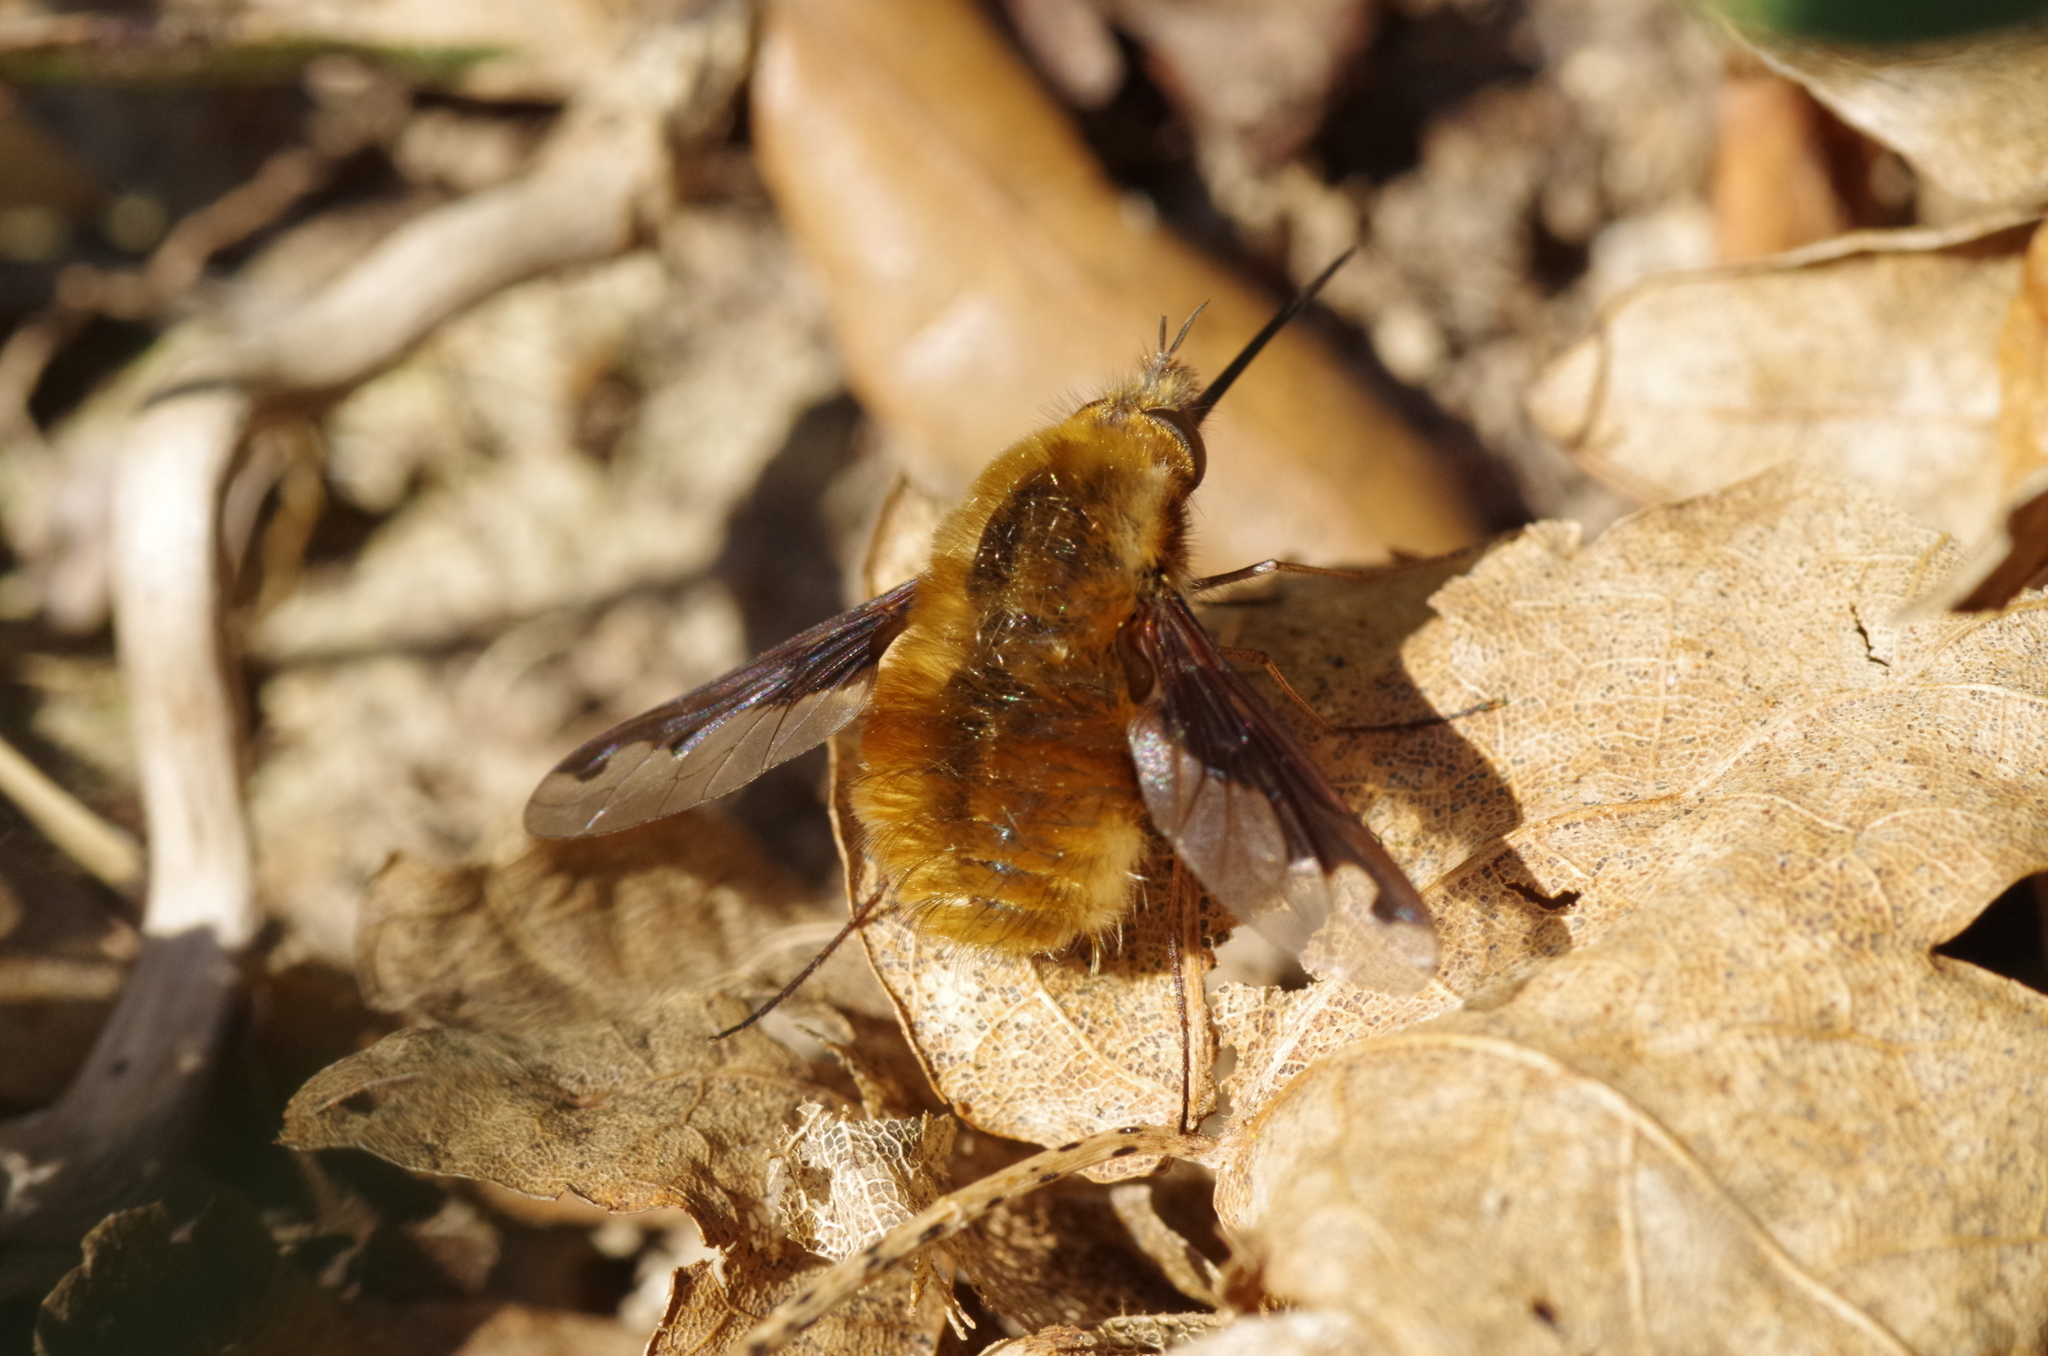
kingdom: Animalia
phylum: Arthropoda
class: Insecta
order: Diptera
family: Bombyliidae
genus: Bombylius
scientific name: Bombylius major
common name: Bee fly
